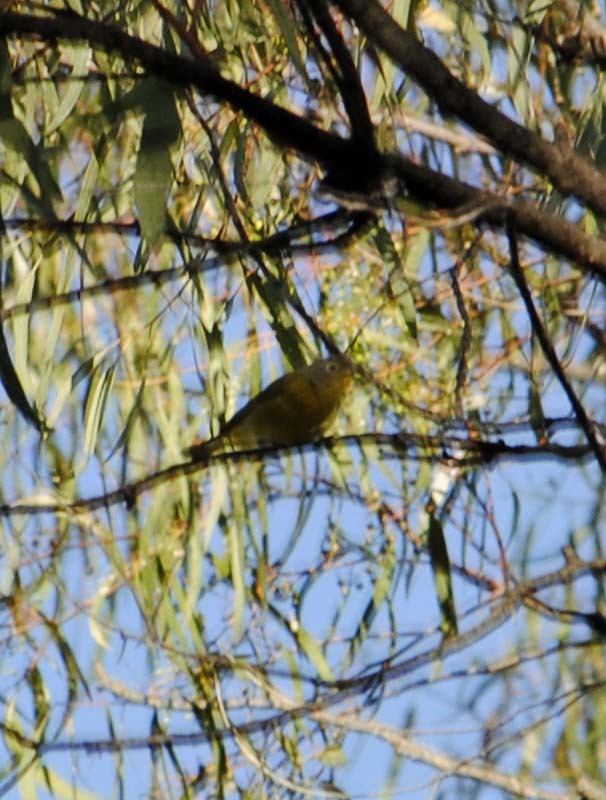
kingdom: Animalia
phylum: Chordata
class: Aves
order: Passeriformes
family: Parulidae
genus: Leiothlypis
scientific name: Leiothlypis ruficapilla
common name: Nashville warbler
